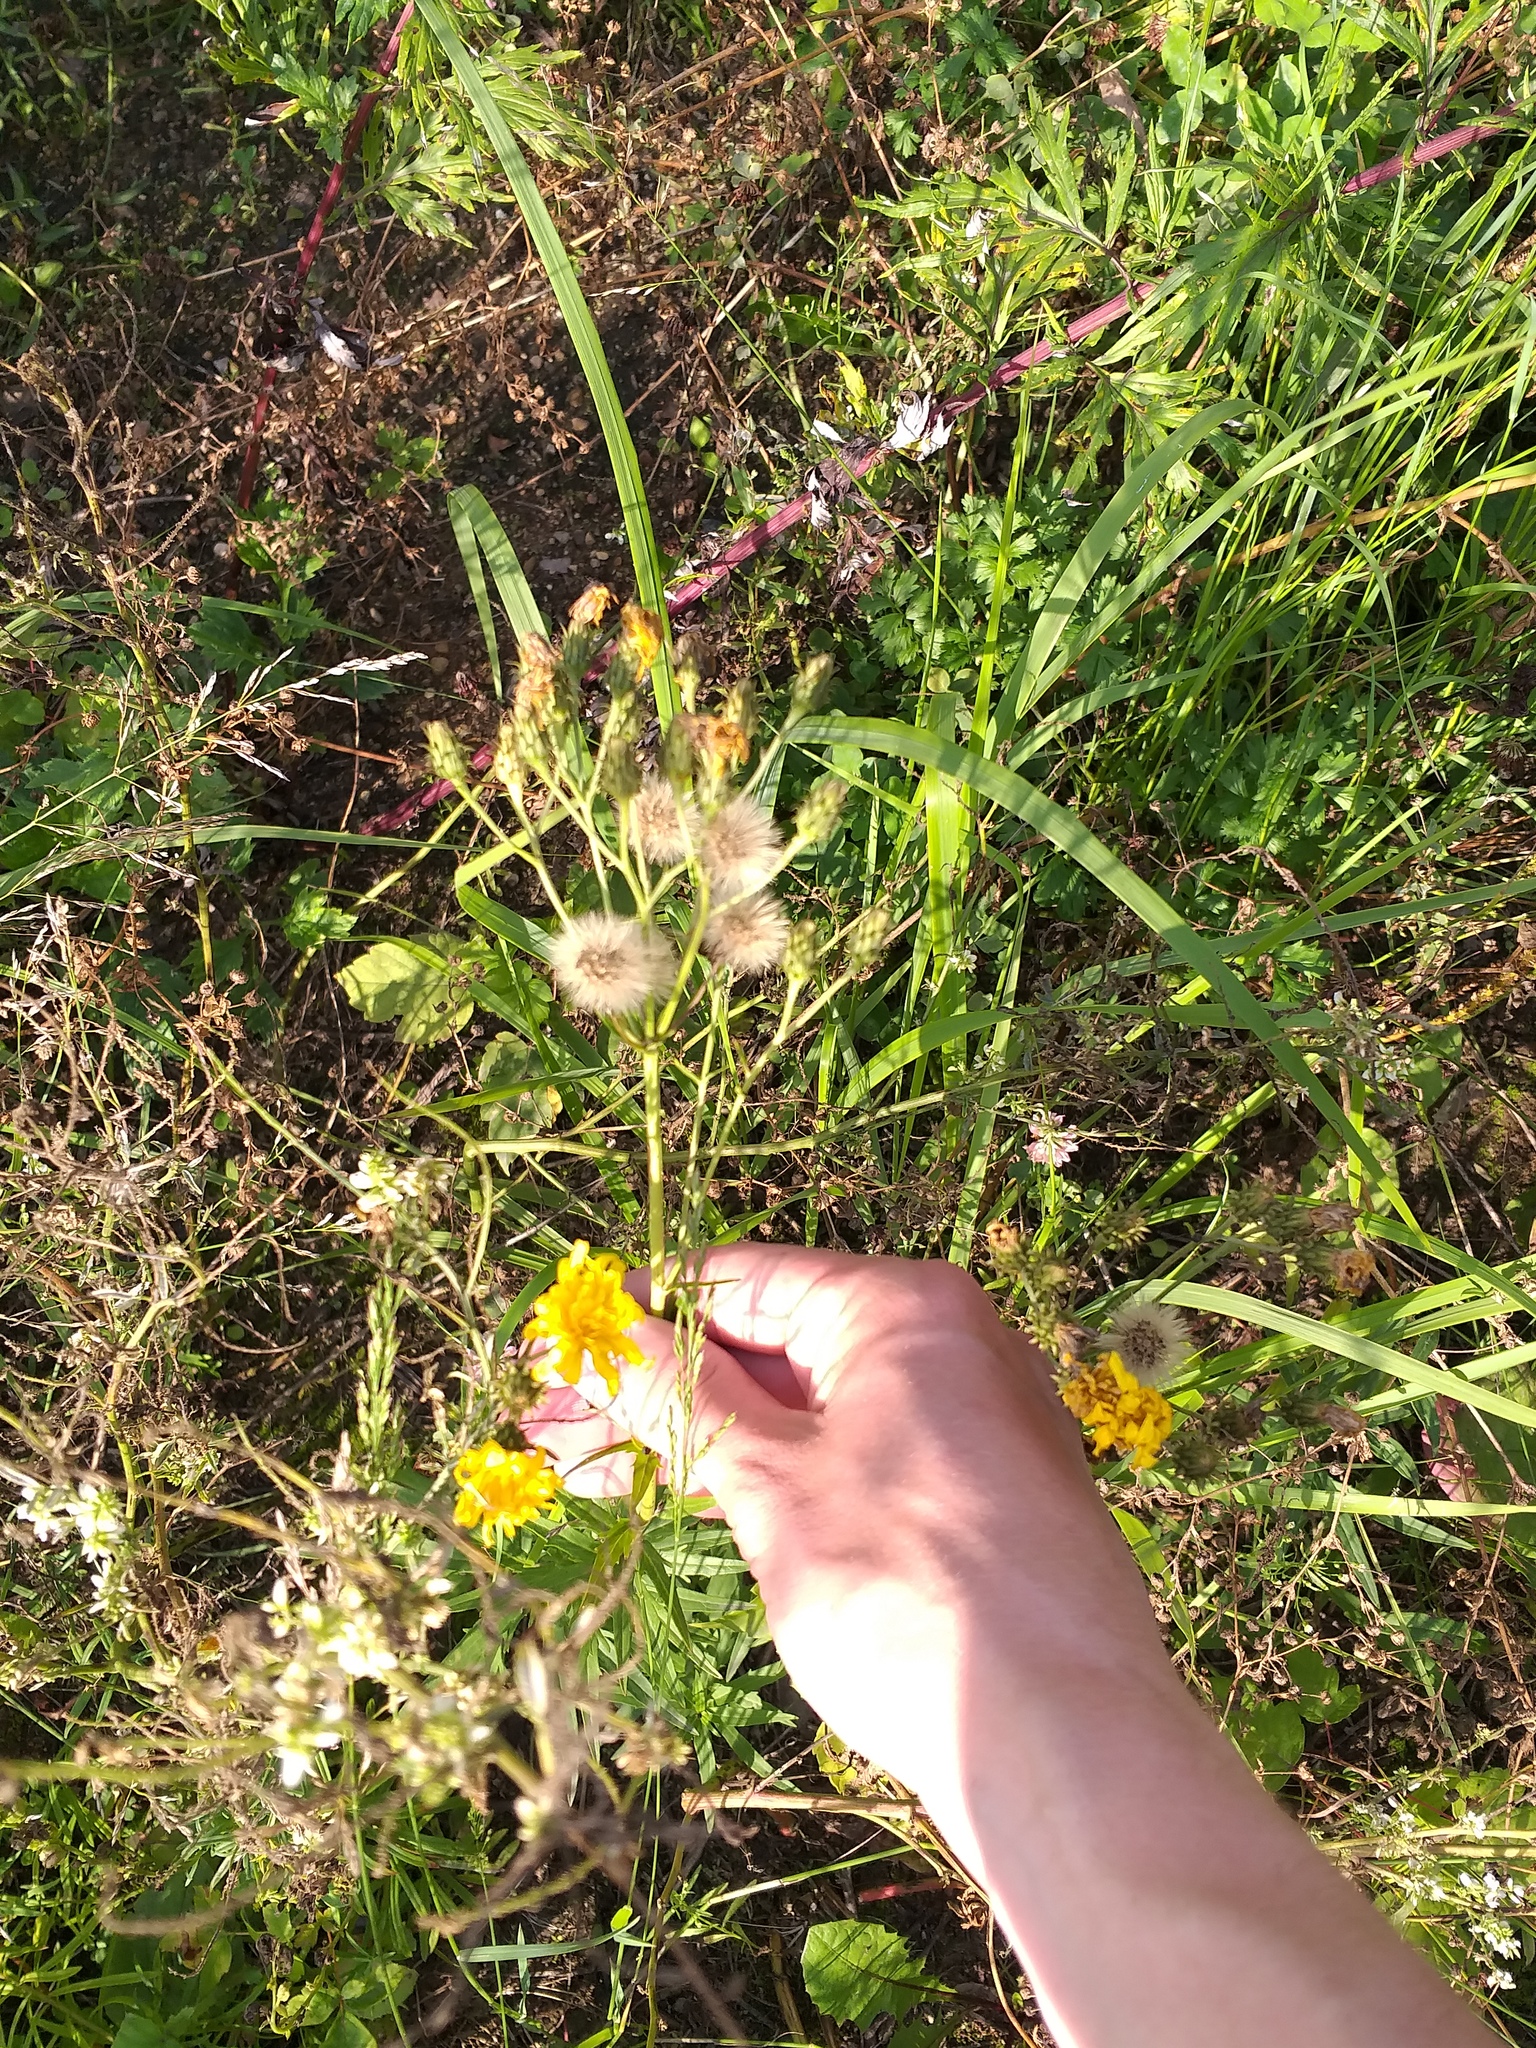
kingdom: Plantae
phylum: Tracheophyta
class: Magnoliopsida
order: Asterales
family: Asteraceae
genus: Hieracium
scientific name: Hieracium umbellatum
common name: Northern hawkweed
